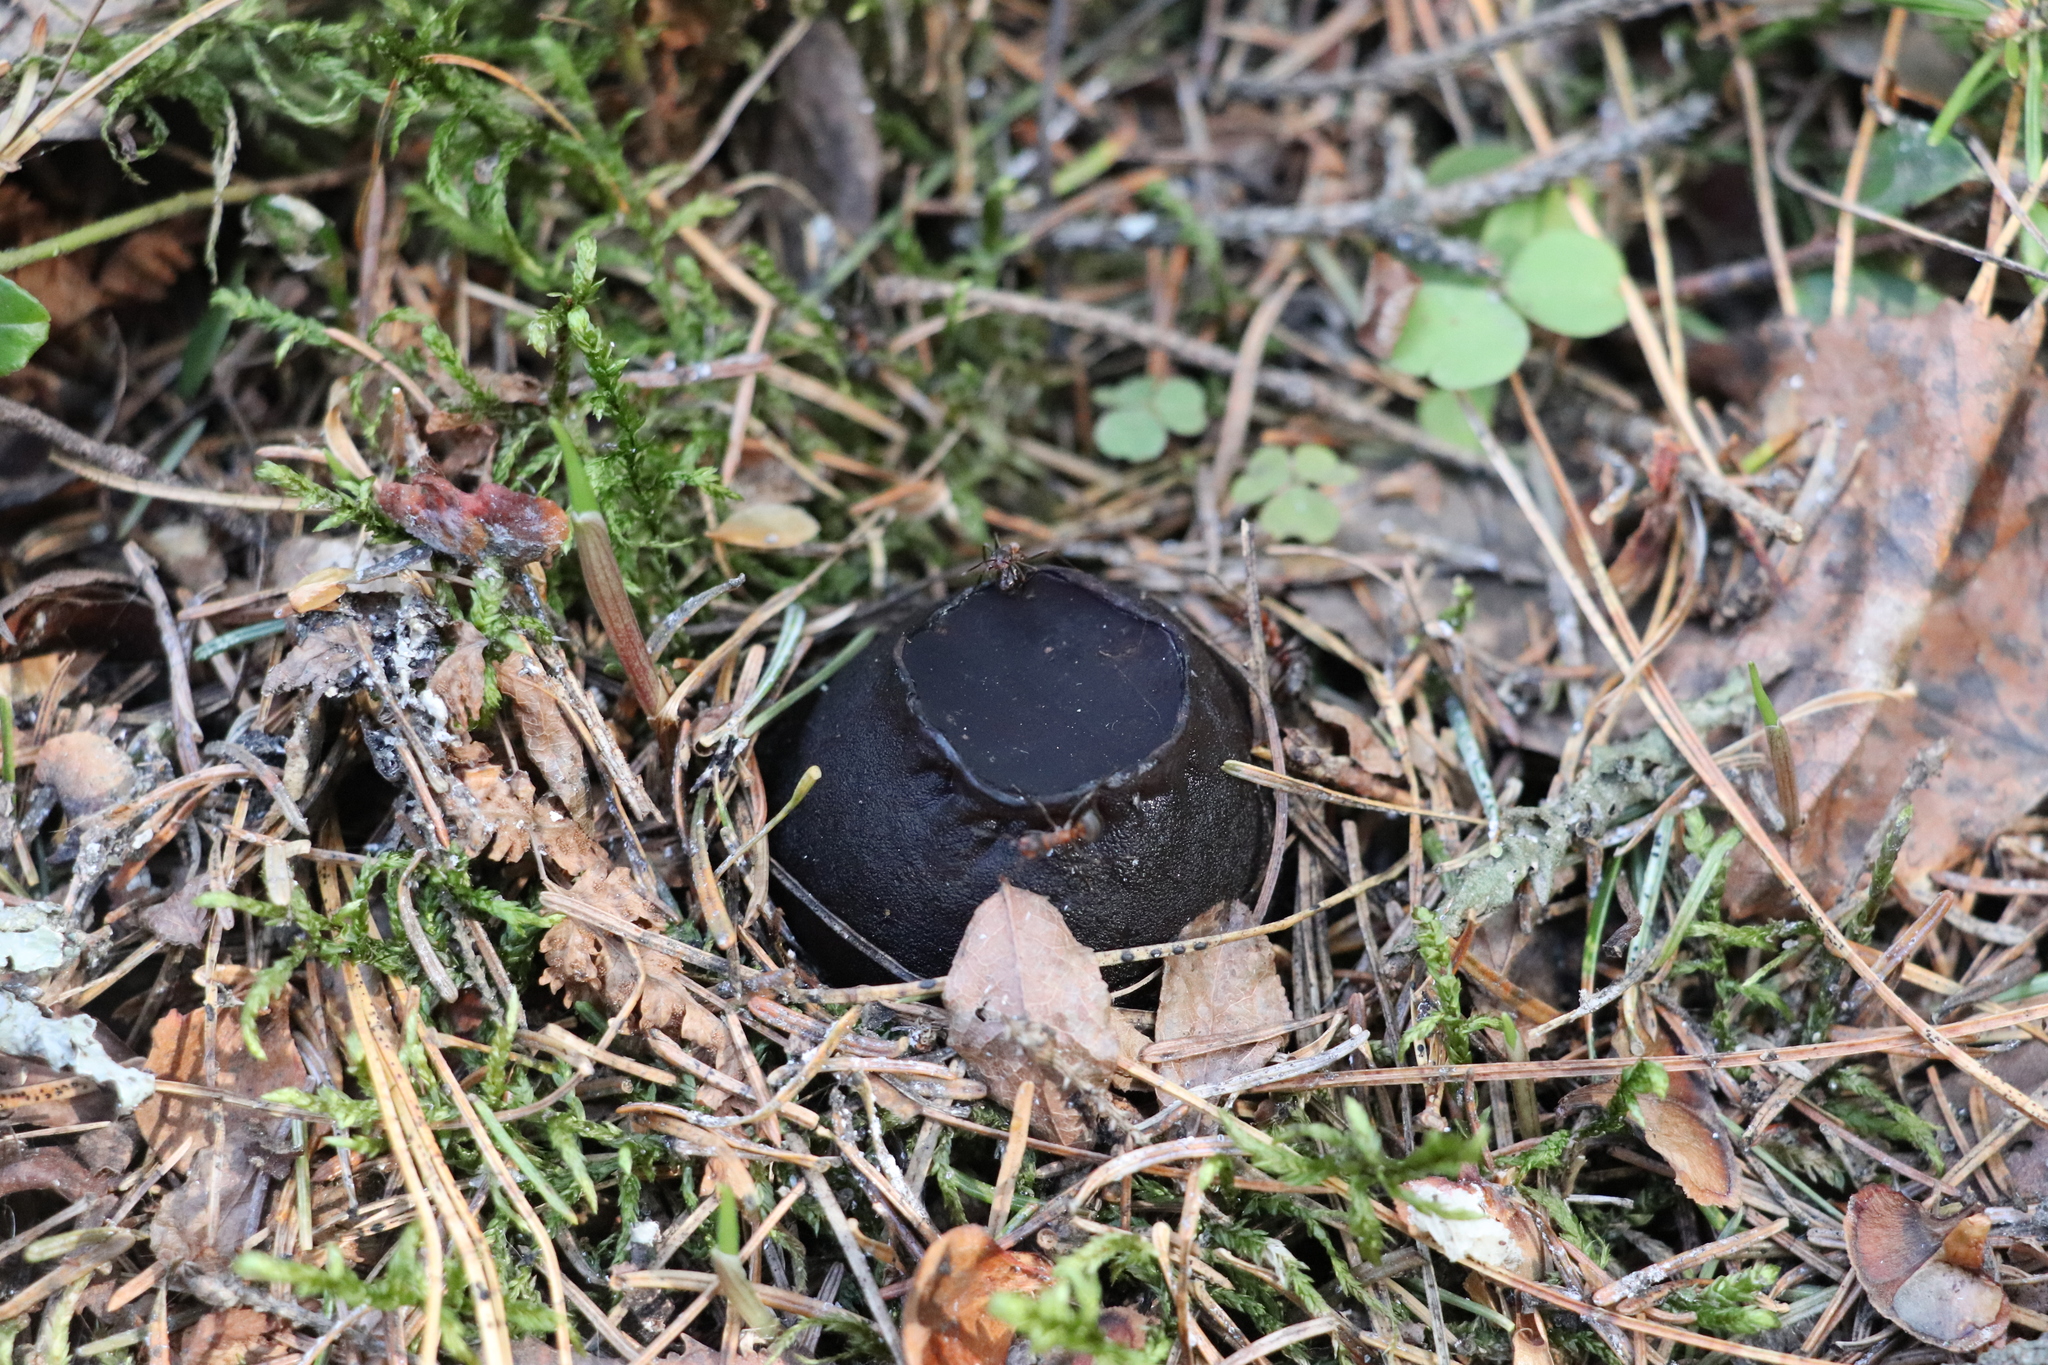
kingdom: Fungi
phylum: Ascomycota
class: Pezizomycetes
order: Pezizales
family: Sarcosomataceae
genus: Sarcosoma
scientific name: Sarcosoma globosum
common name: Charred-pancake cup
